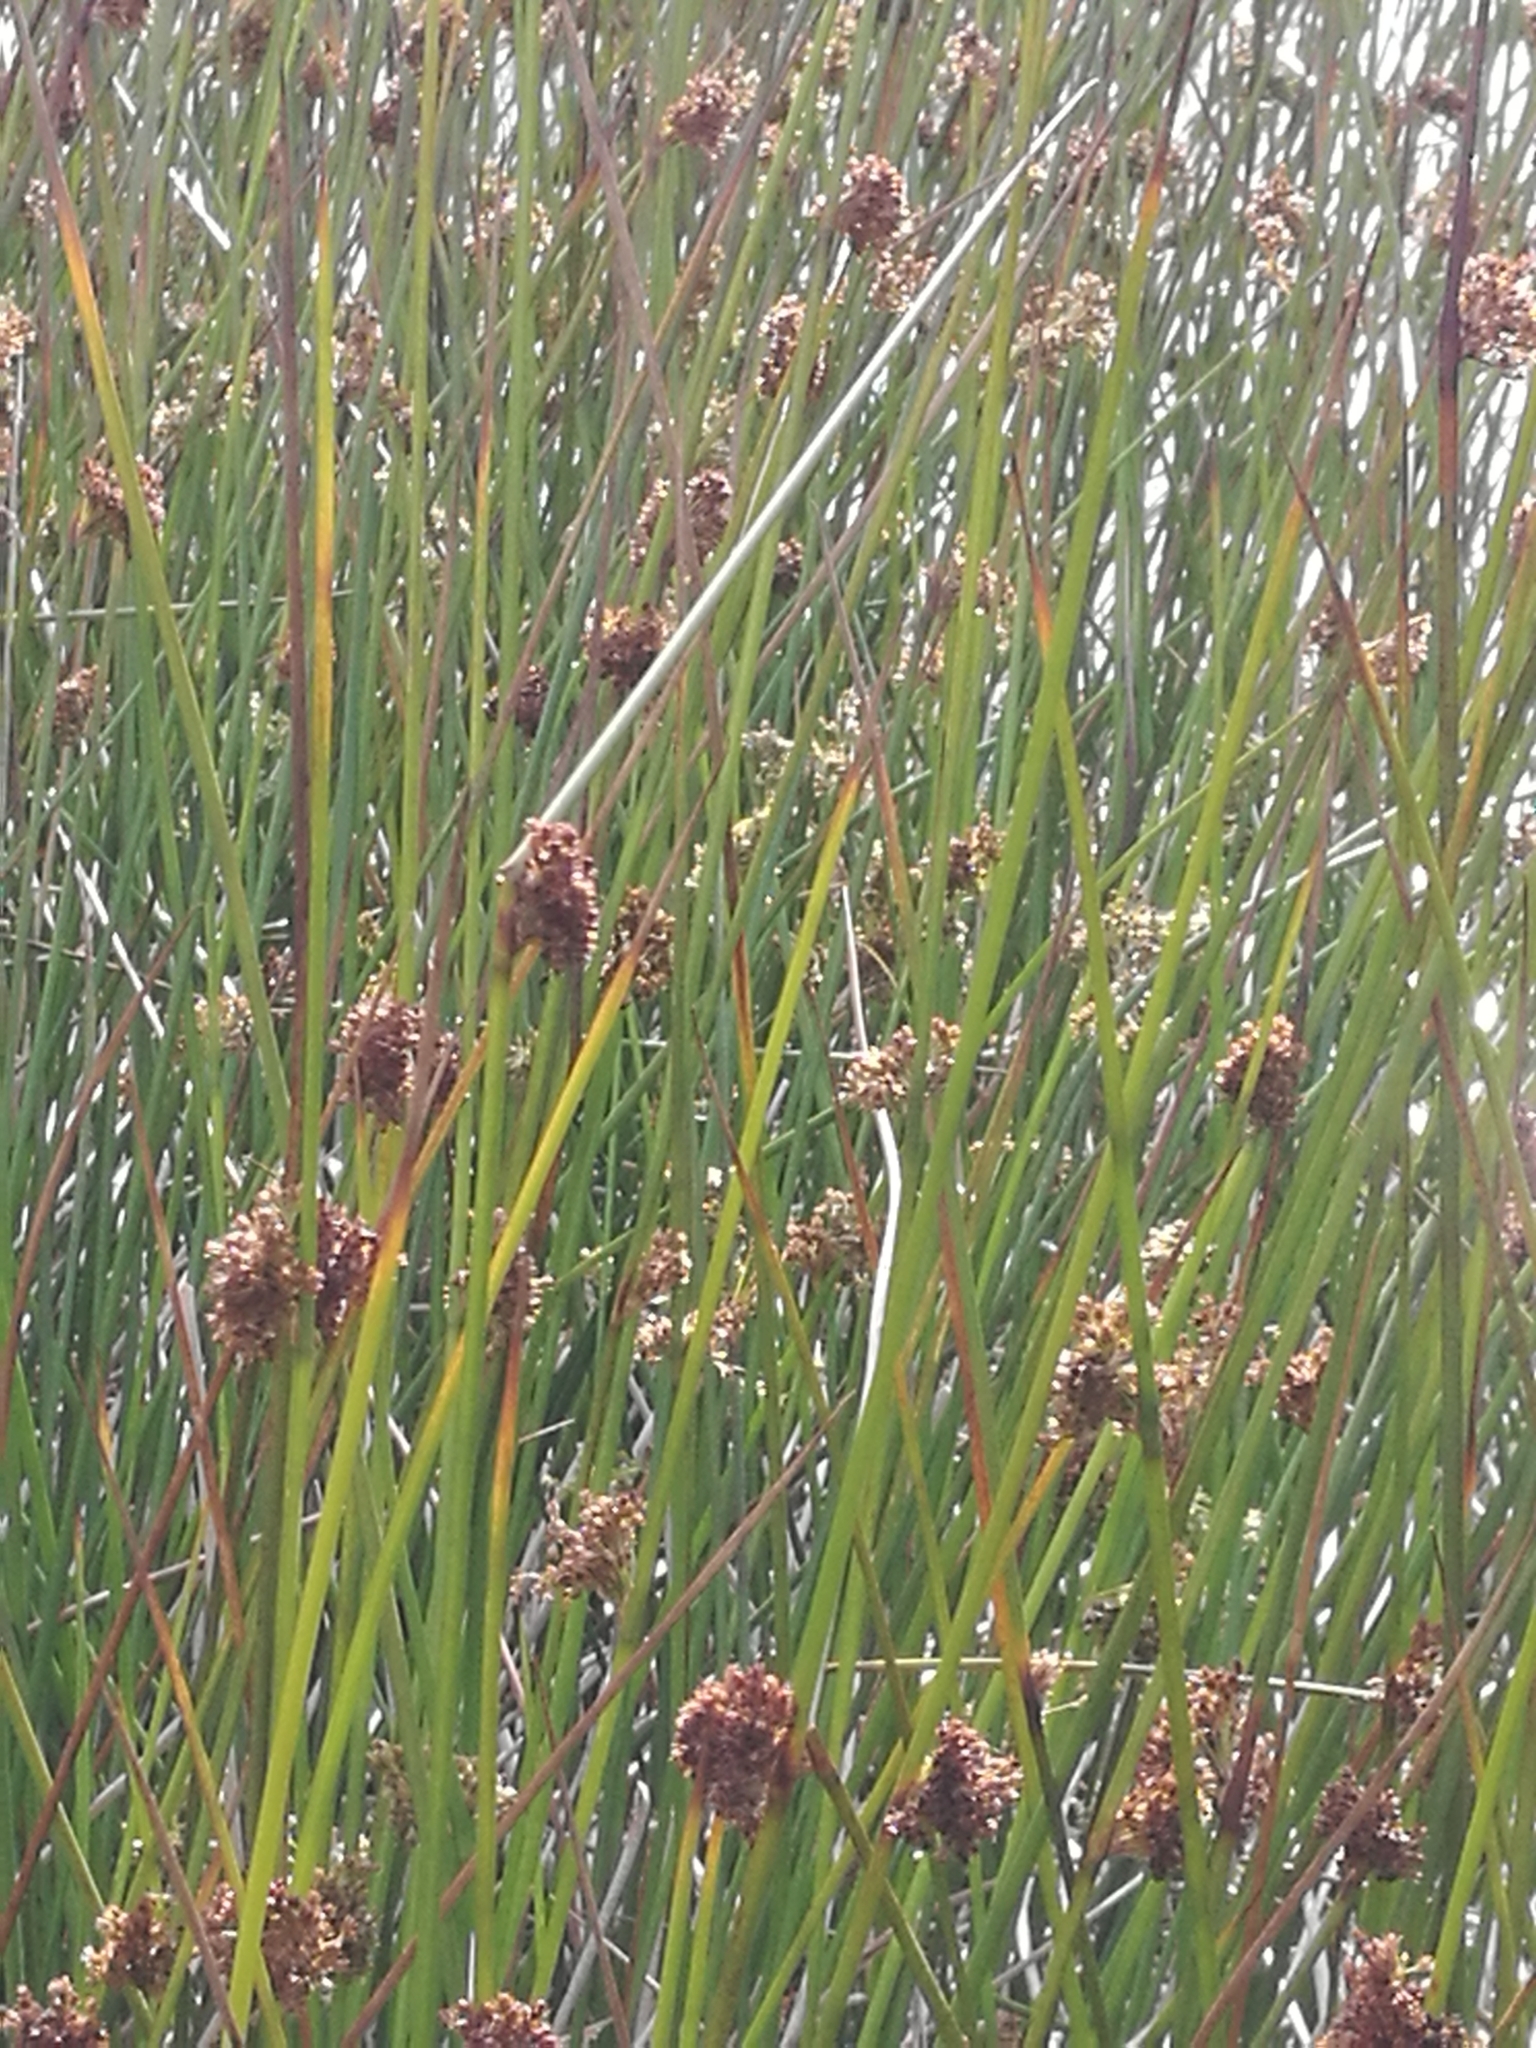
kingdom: Plantae
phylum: Tracheophyta
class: Liliopsida
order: Poales
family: Cyperaceae
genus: Ficinia
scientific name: Ficinia nodosa
